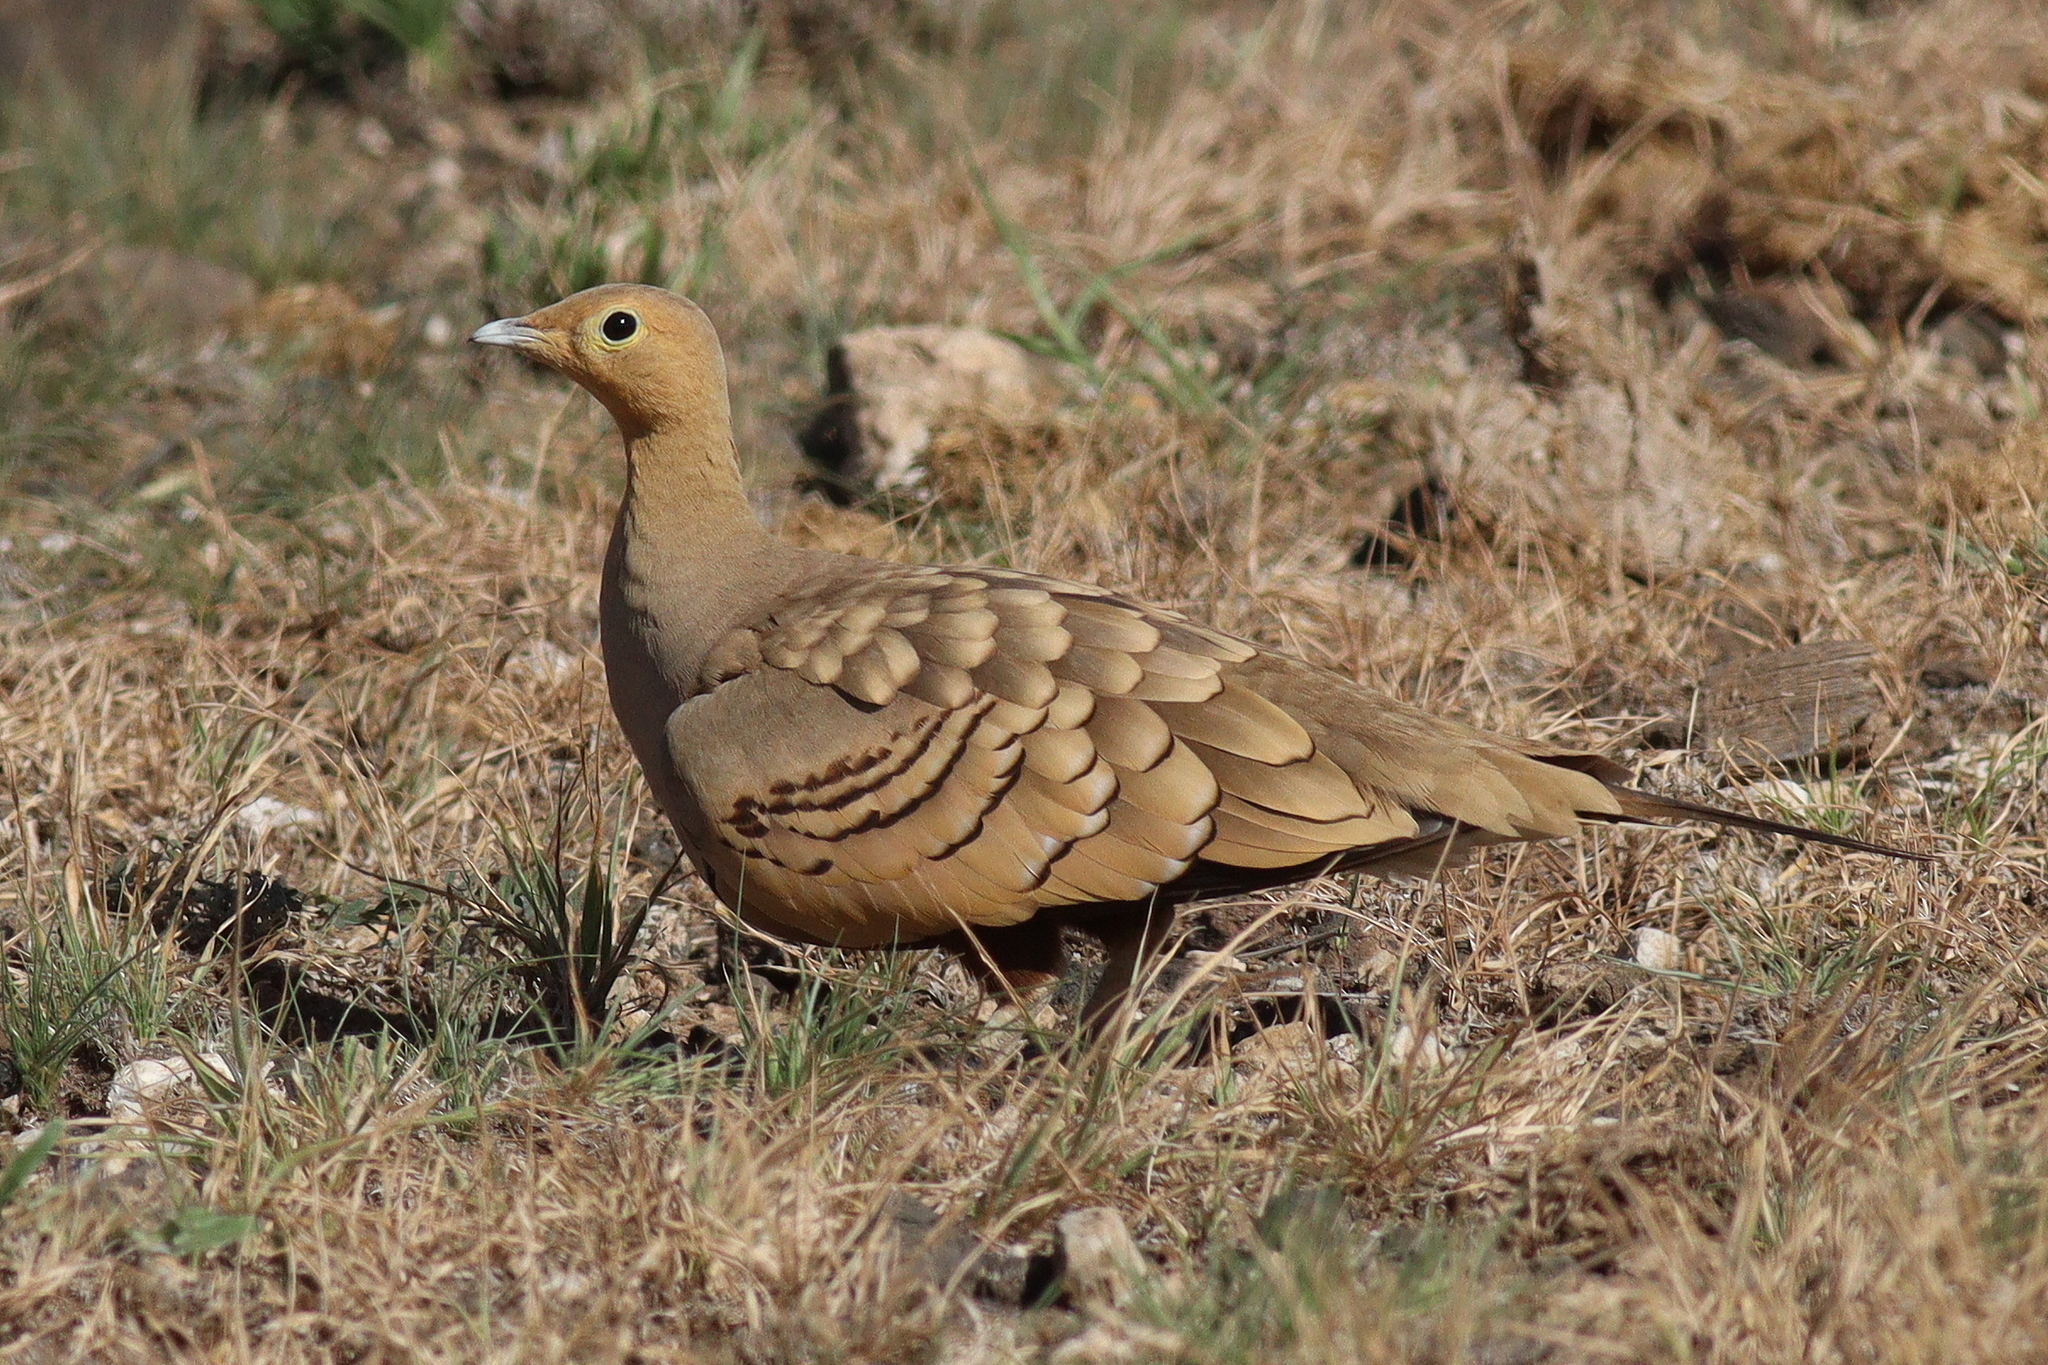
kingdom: Animalia
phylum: Chordata
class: Aves
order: Pteroclidiformes
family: Pteroclididae
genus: Pterocles
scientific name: Pterocles exustus
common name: Chestnut-bellied sandgrouse
